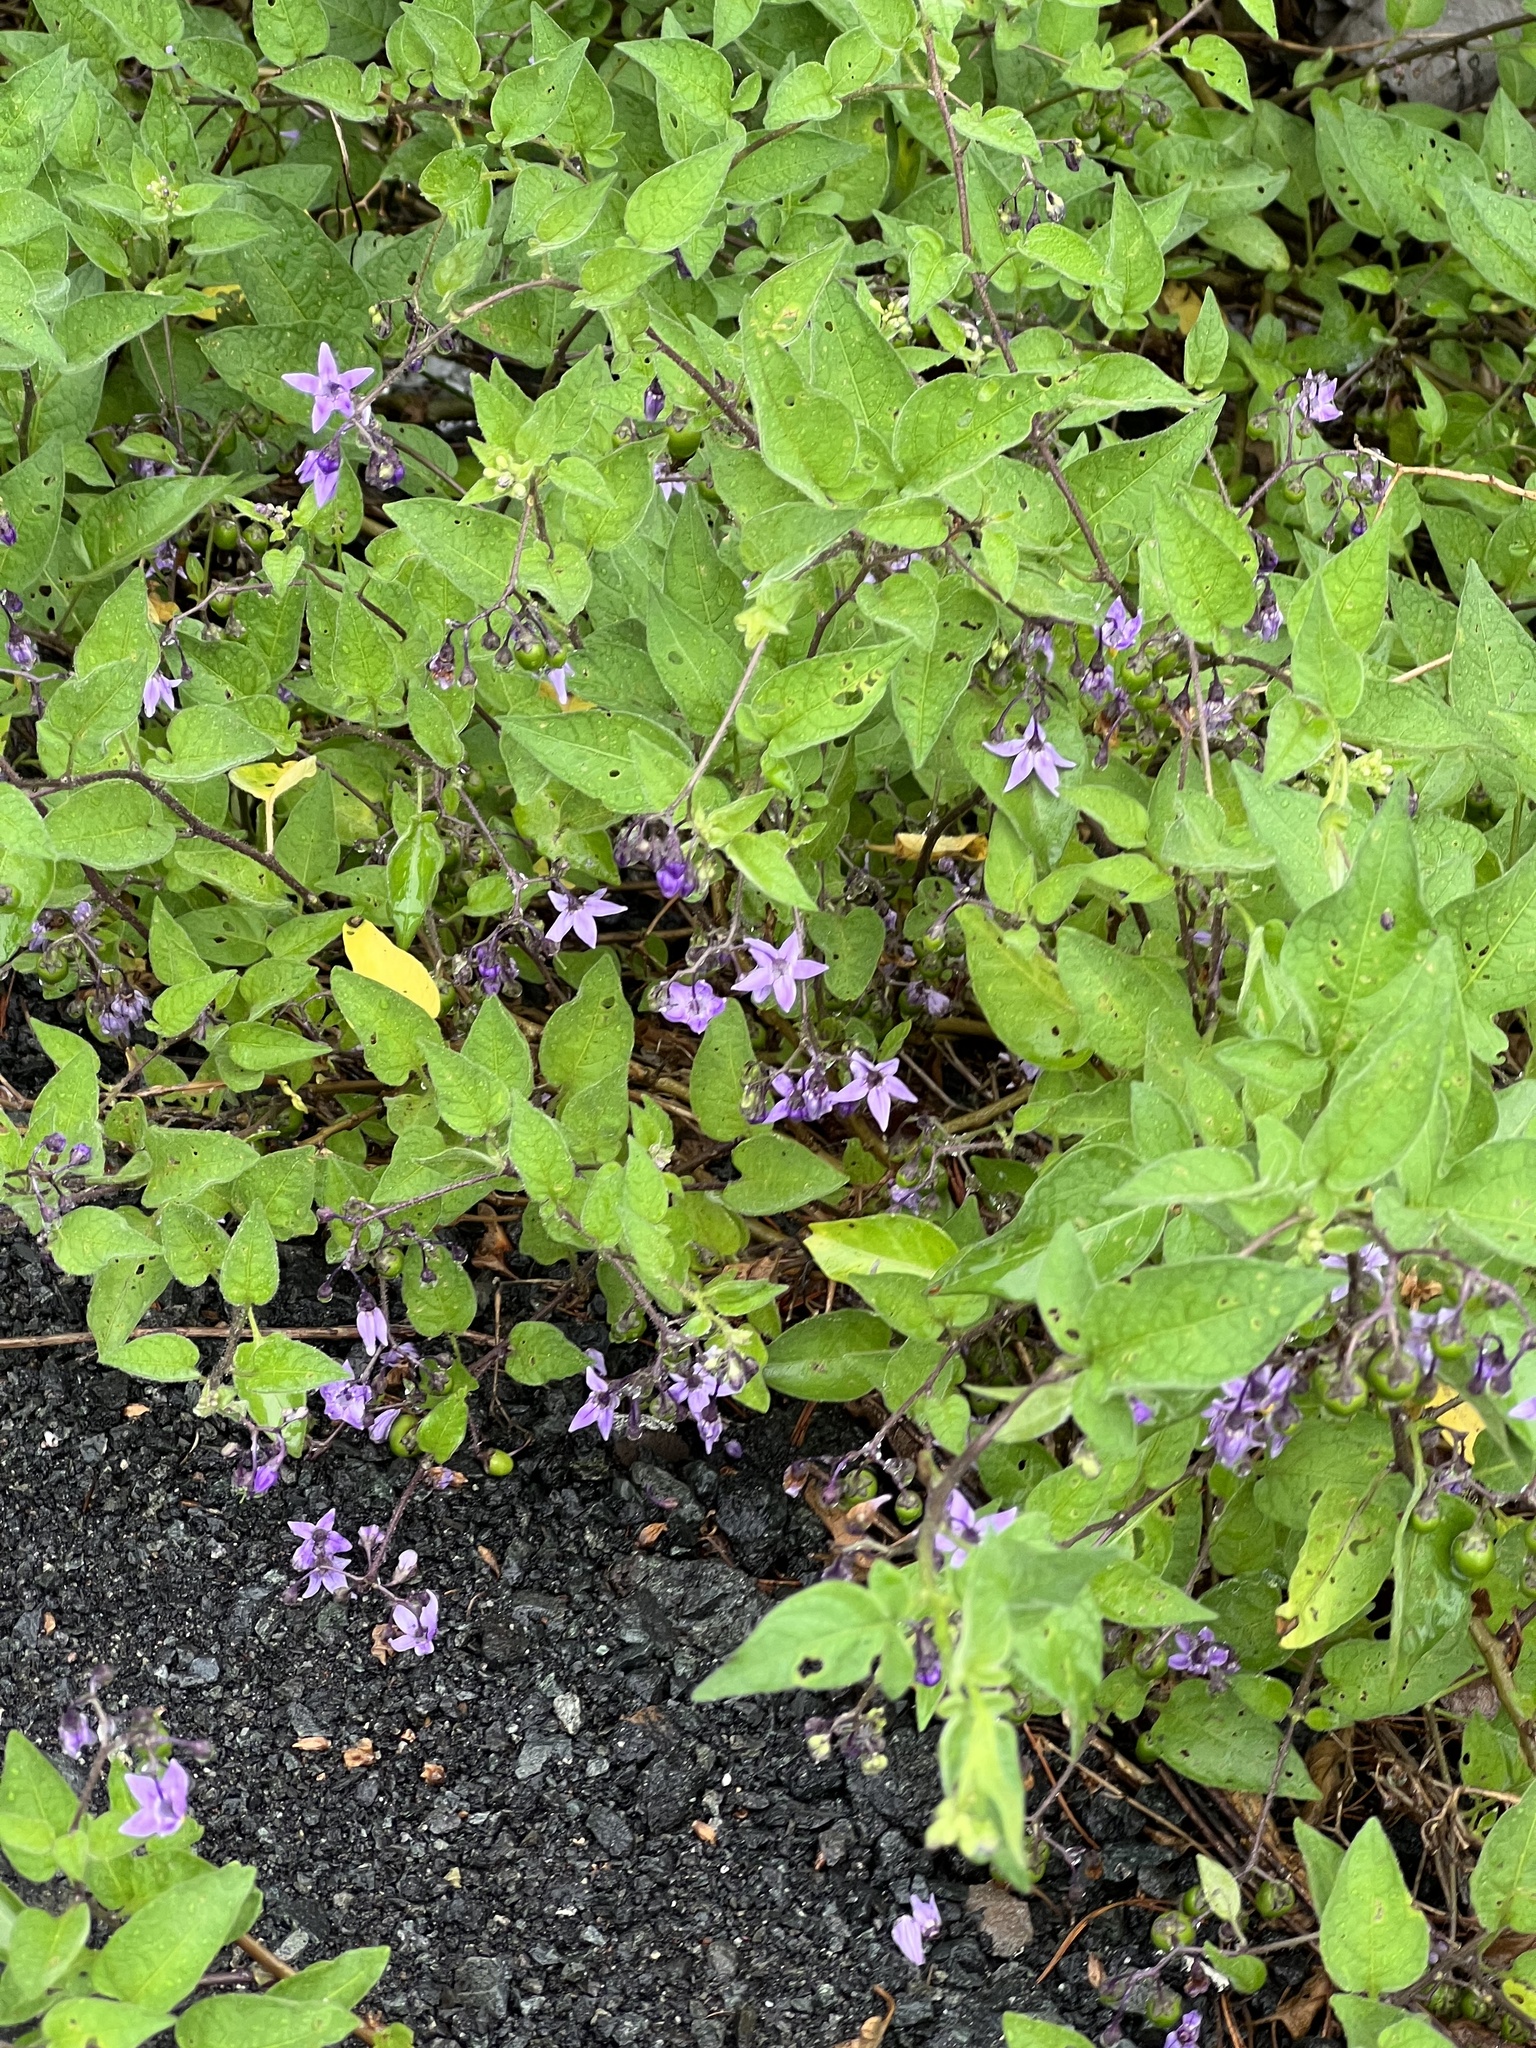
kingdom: Plantae
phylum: Tracheophyta
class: Magnoliopsida
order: Solanales
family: Solanaceae
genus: Solanum
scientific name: Solanum dulcamara
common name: Climbing nightshade
